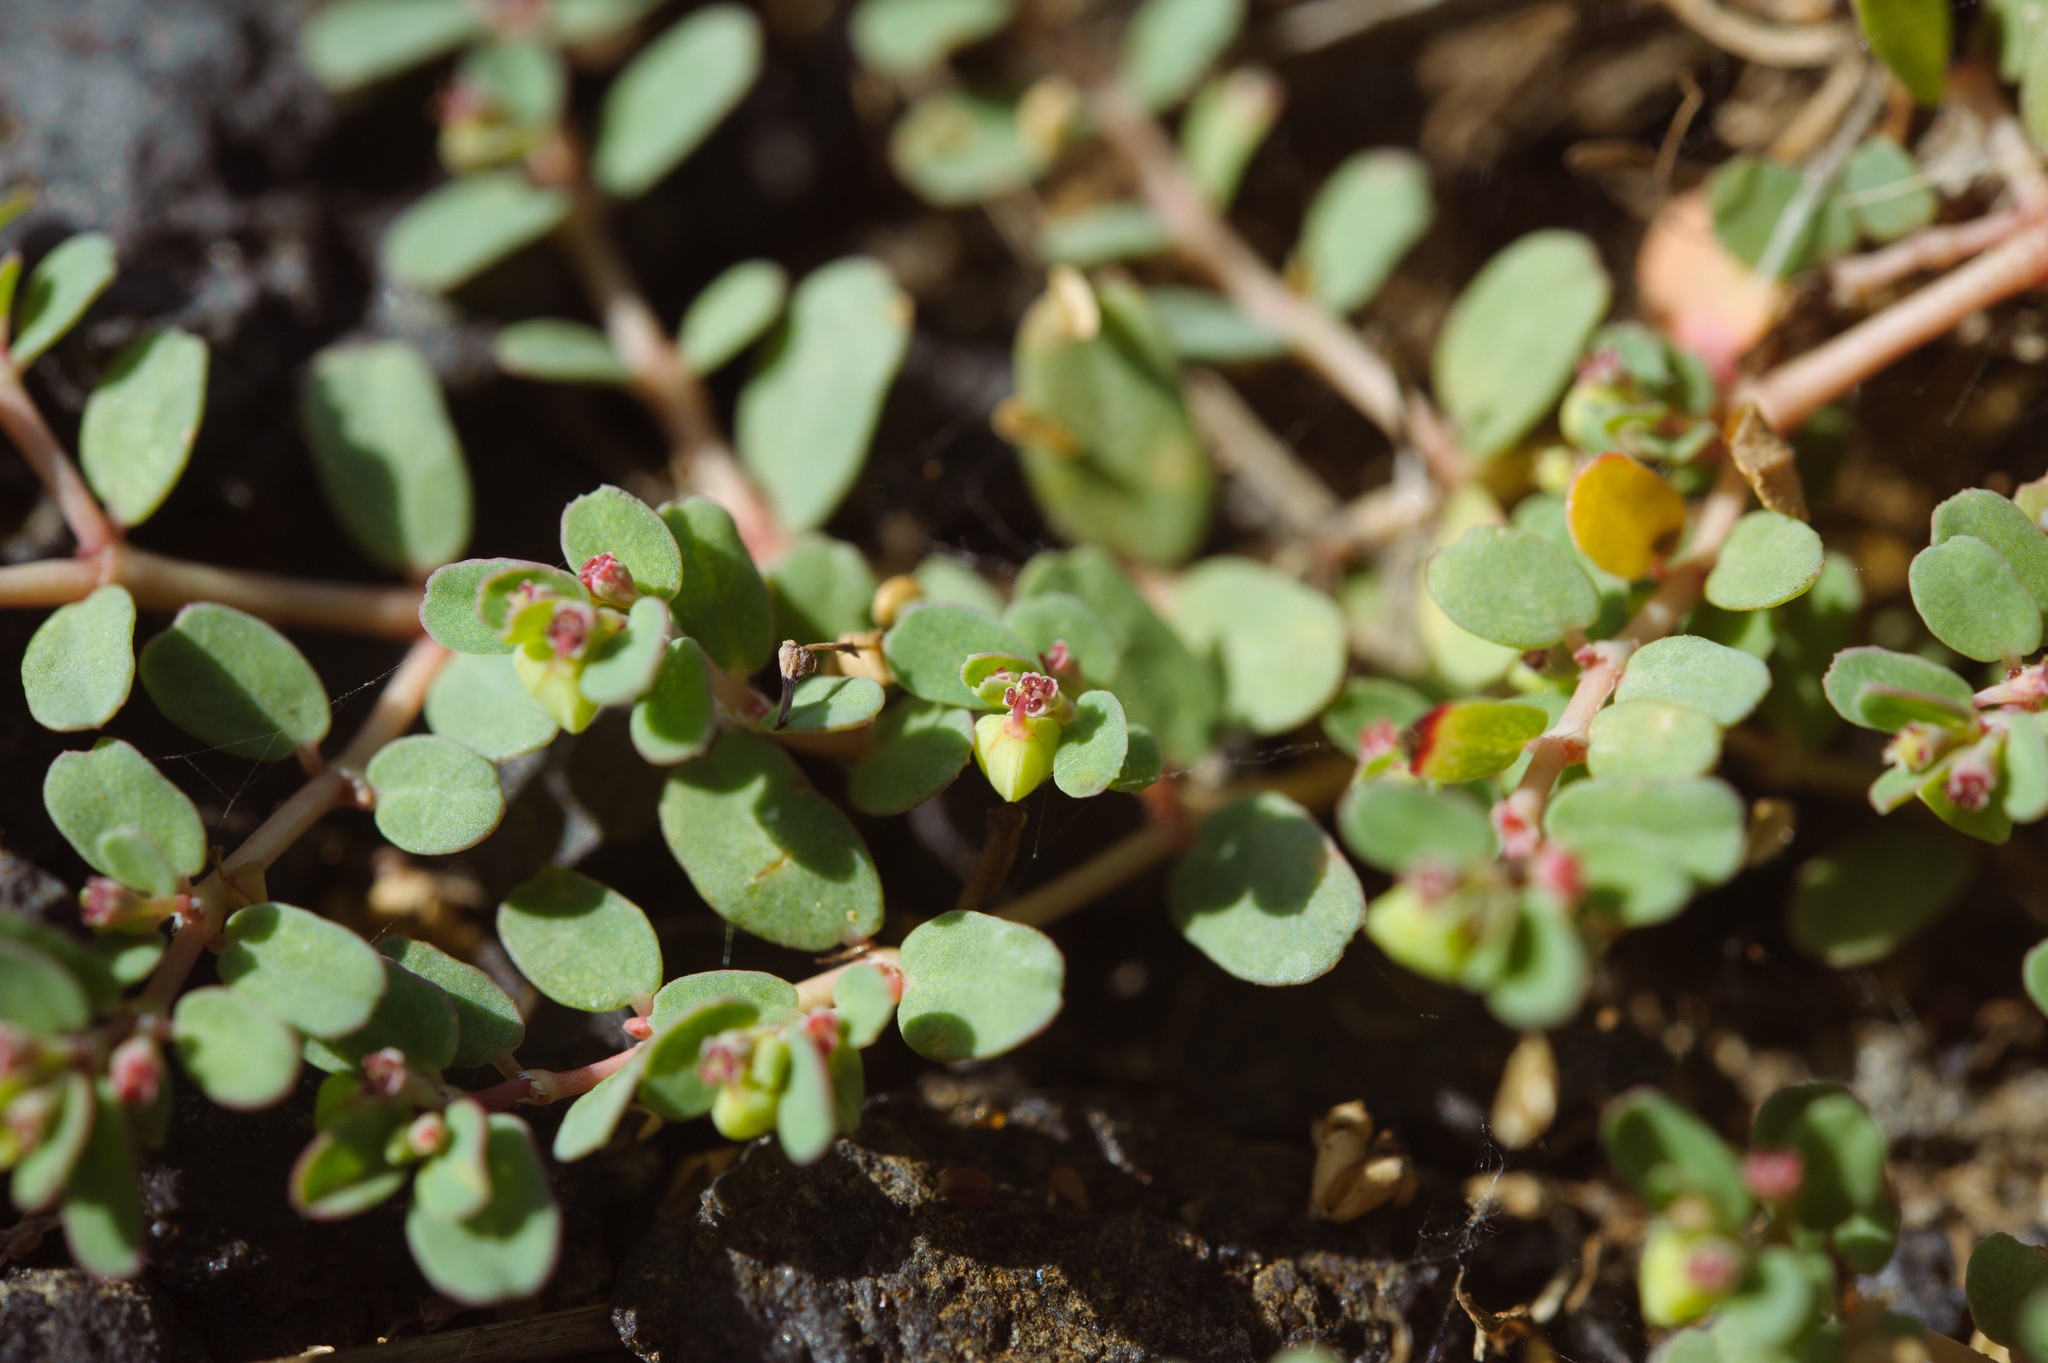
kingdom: Plantae
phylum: Tracheophyta
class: Magnoliopsida
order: Malpighiales
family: Euphorbiaceae
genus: Euphorbia
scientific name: Euphorbia taihsiensis
